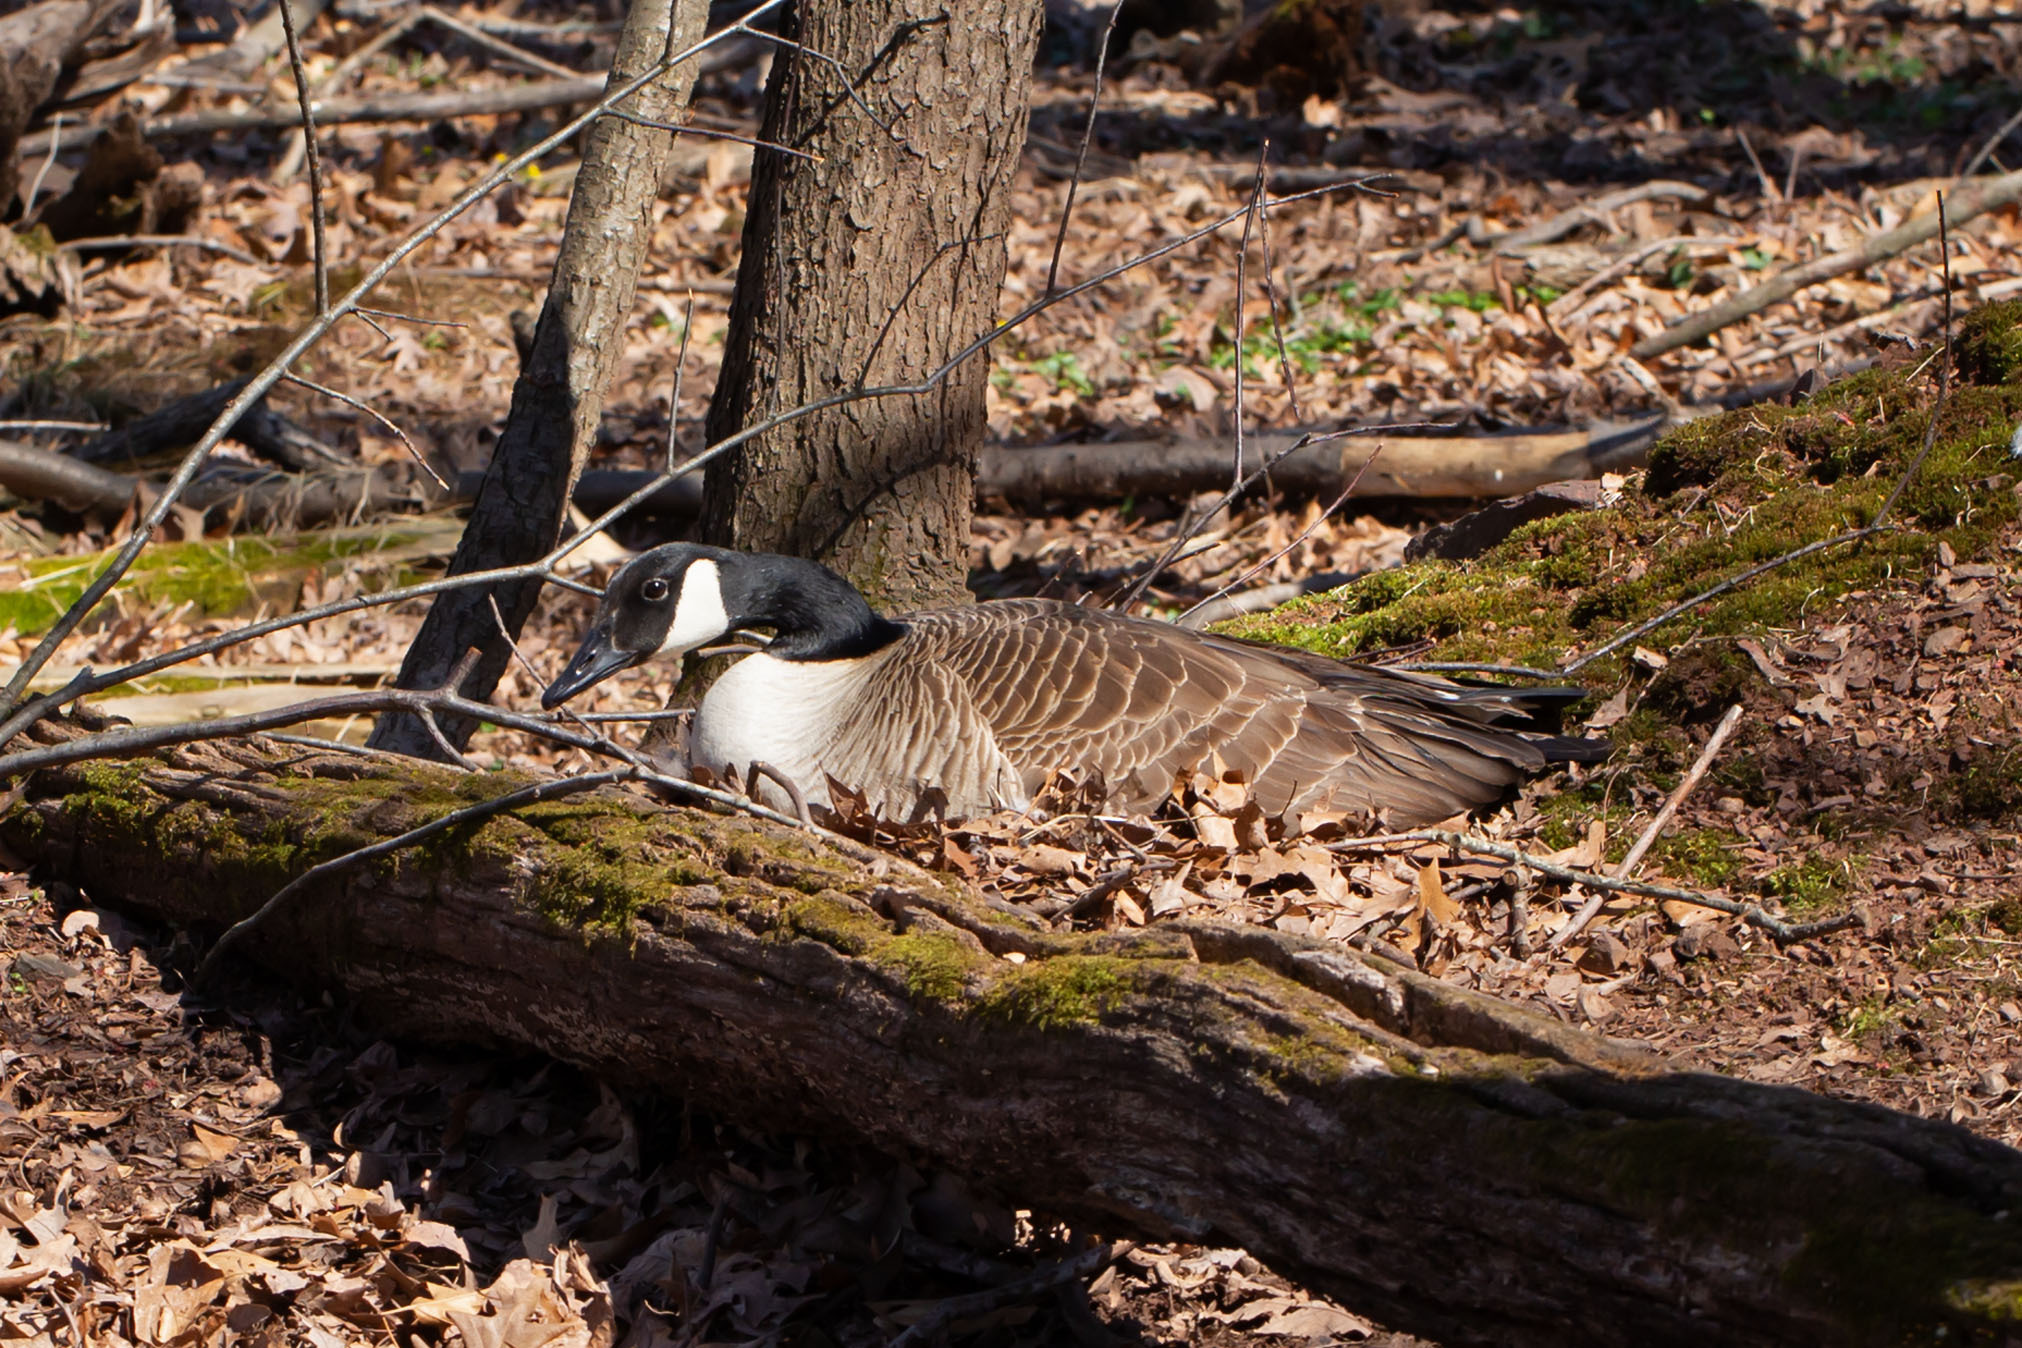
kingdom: Animalia
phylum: Chordata
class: Aves
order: Anseriformes
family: Anatidae
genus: Branta
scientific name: Branta canadensis
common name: Canada goose
